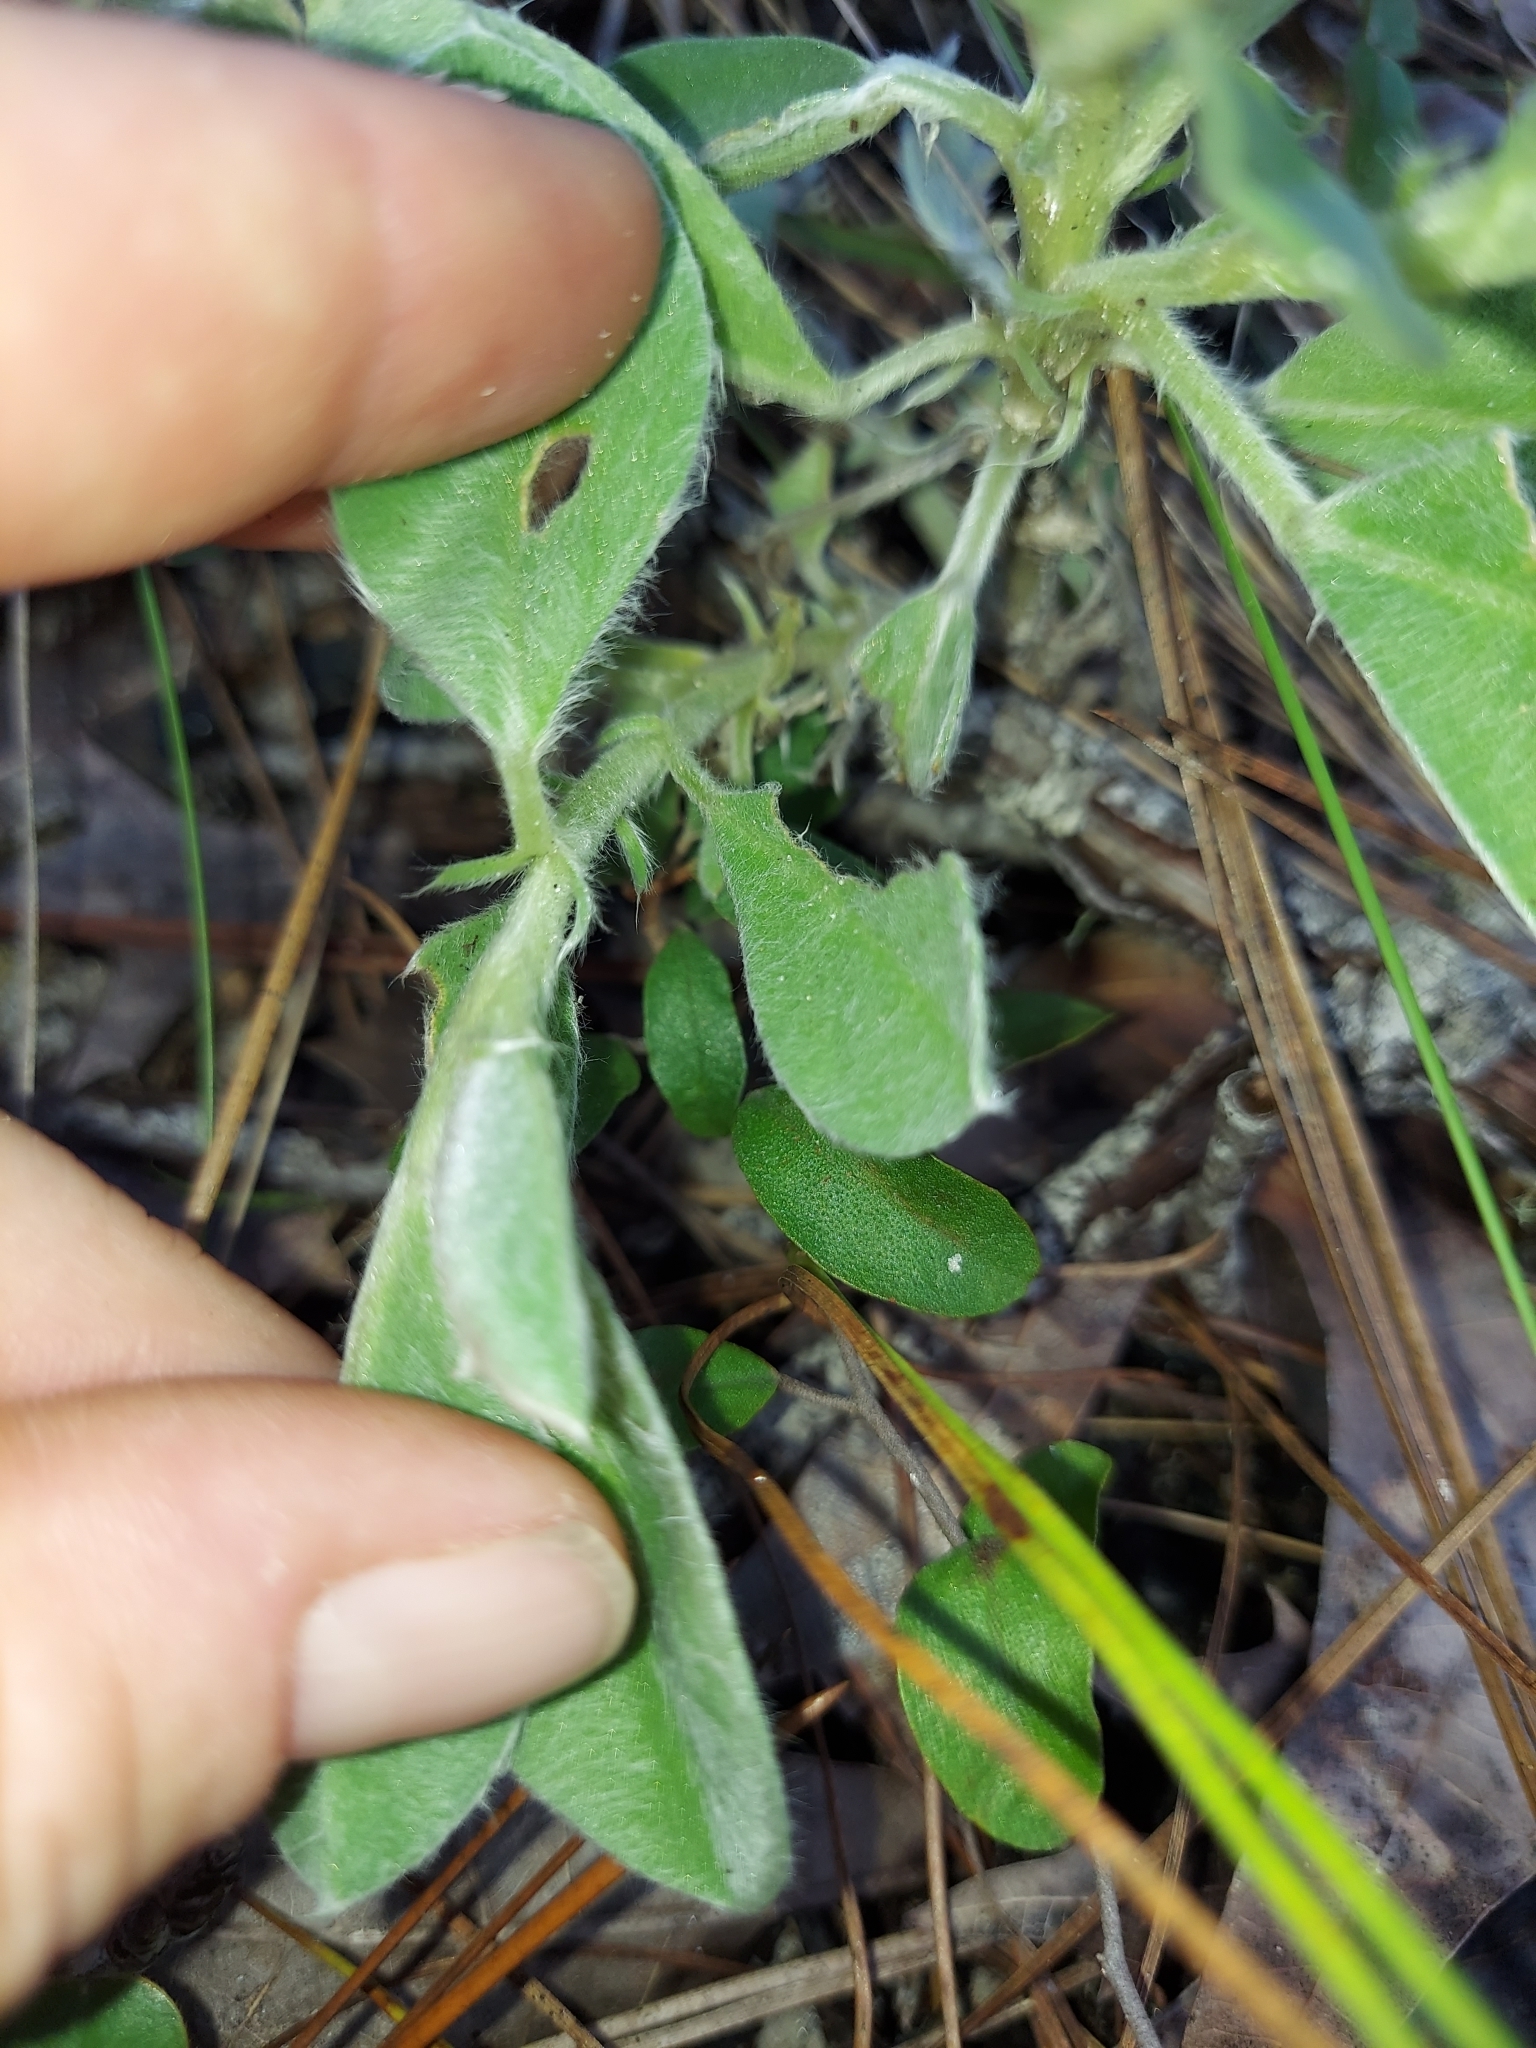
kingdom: Plantae
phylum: Tracheophyta
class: Magnoliopsida
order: Fabales
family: Fabaceae
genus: Lupinus
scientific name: Lupinus
